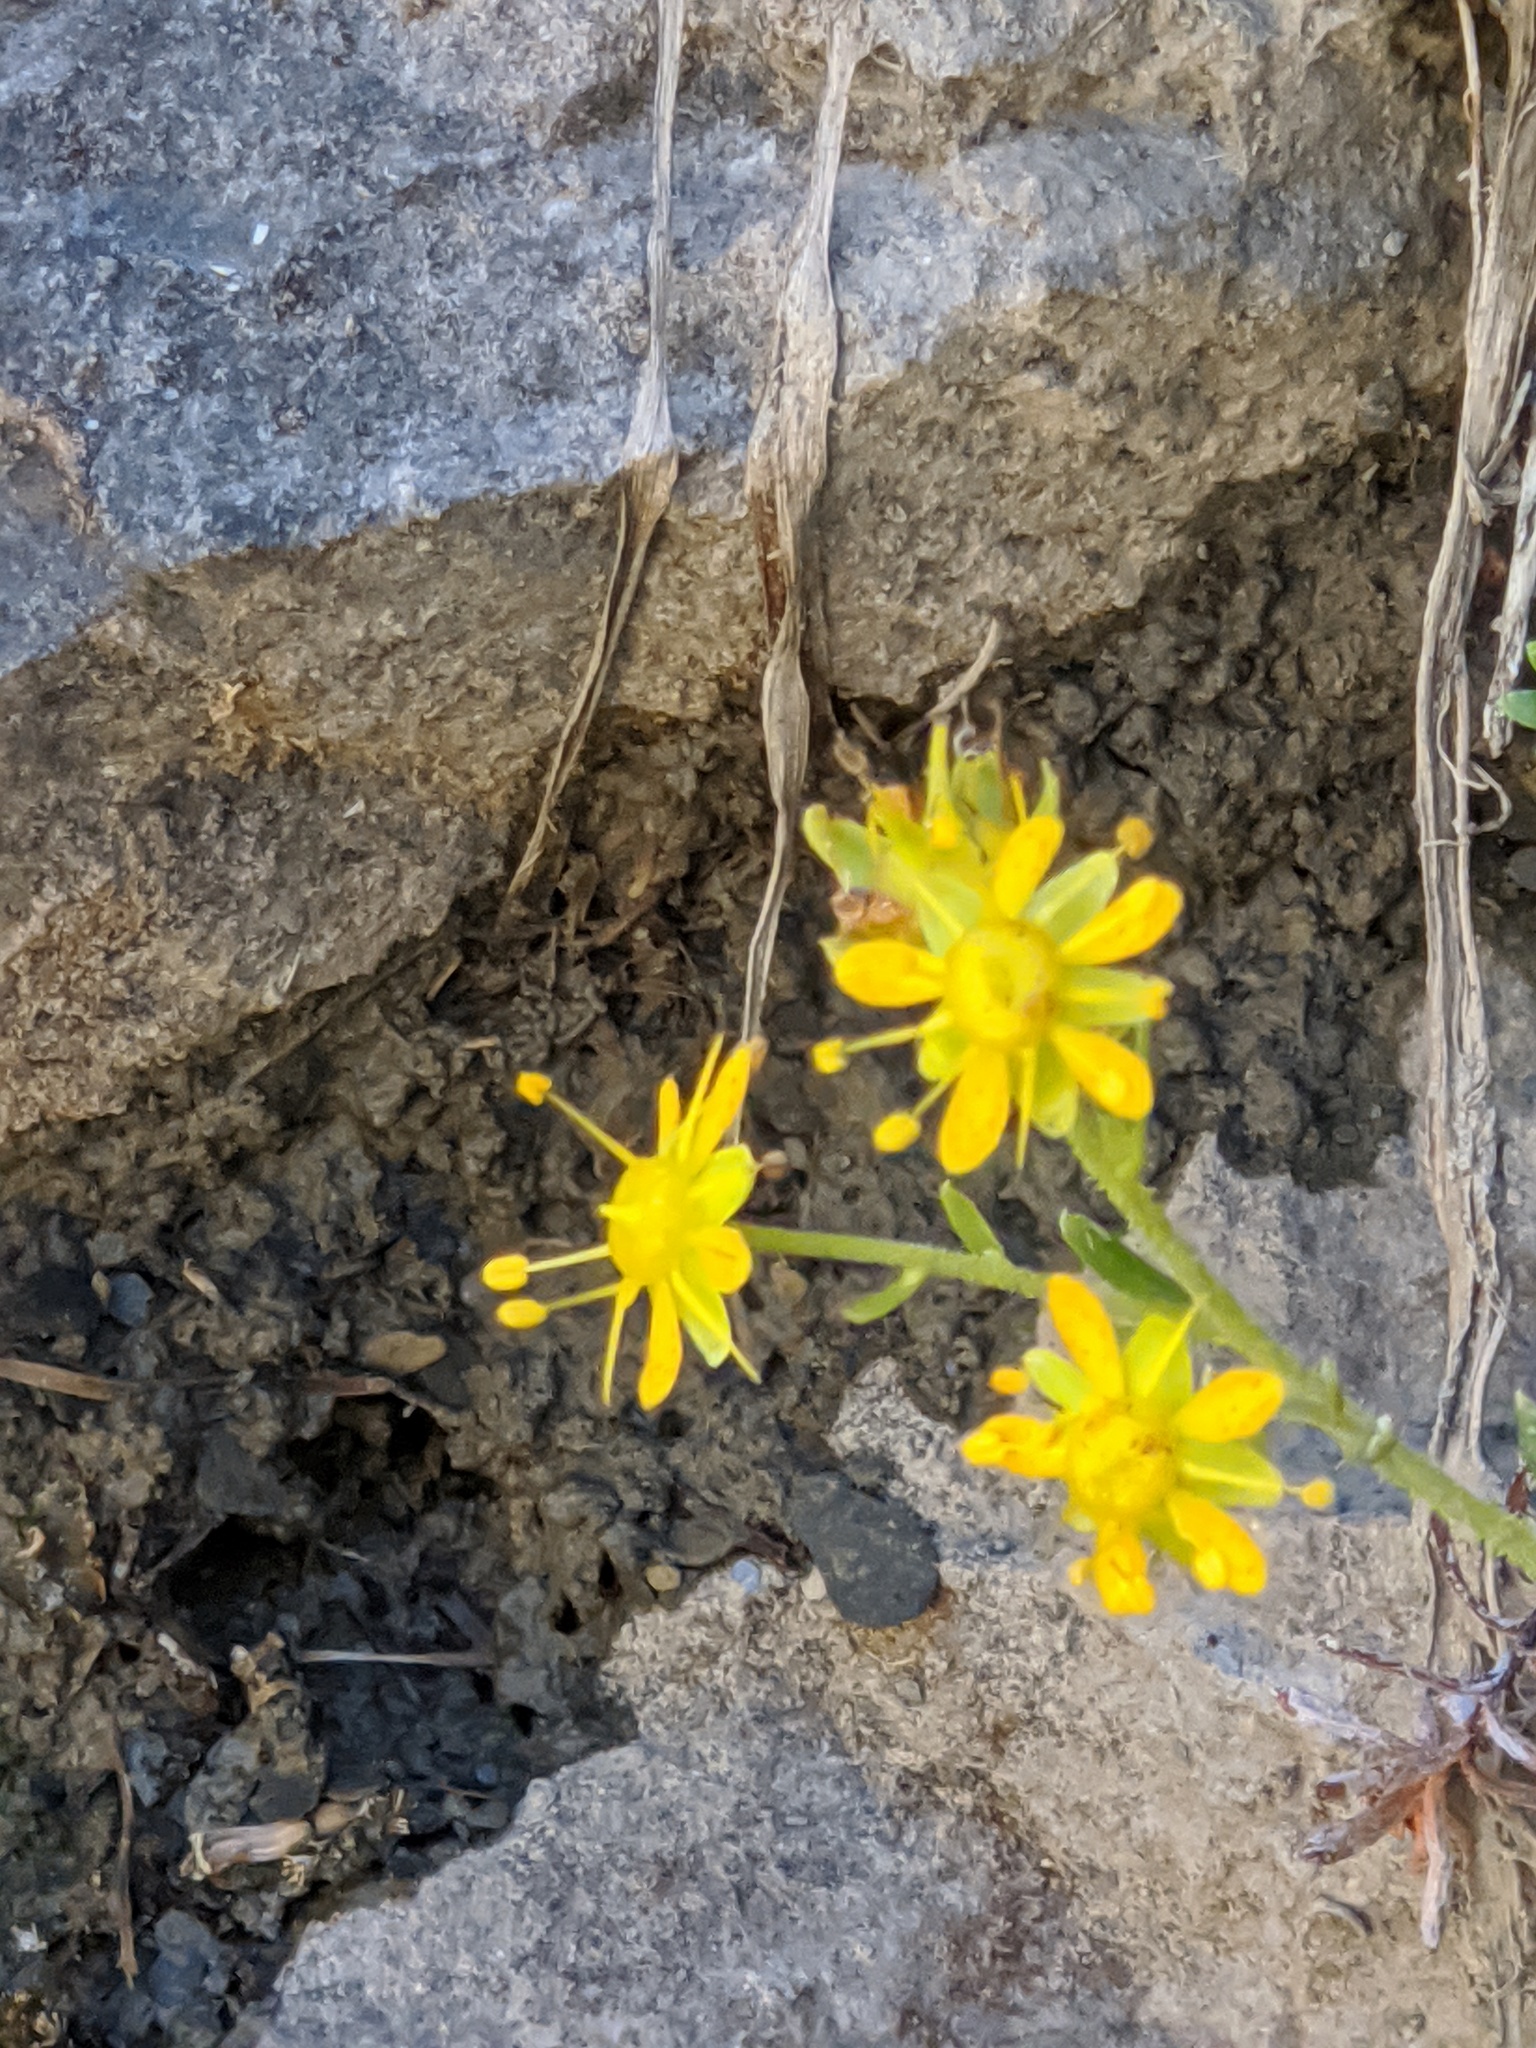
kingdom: Plantae
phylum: Tracheophyta
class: Magnoliopsida
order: Saxifragales
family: Saxifragaceae
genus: Saxifraga
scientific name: Saxifraga aizoides
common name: Yellow mountain saxifrage
